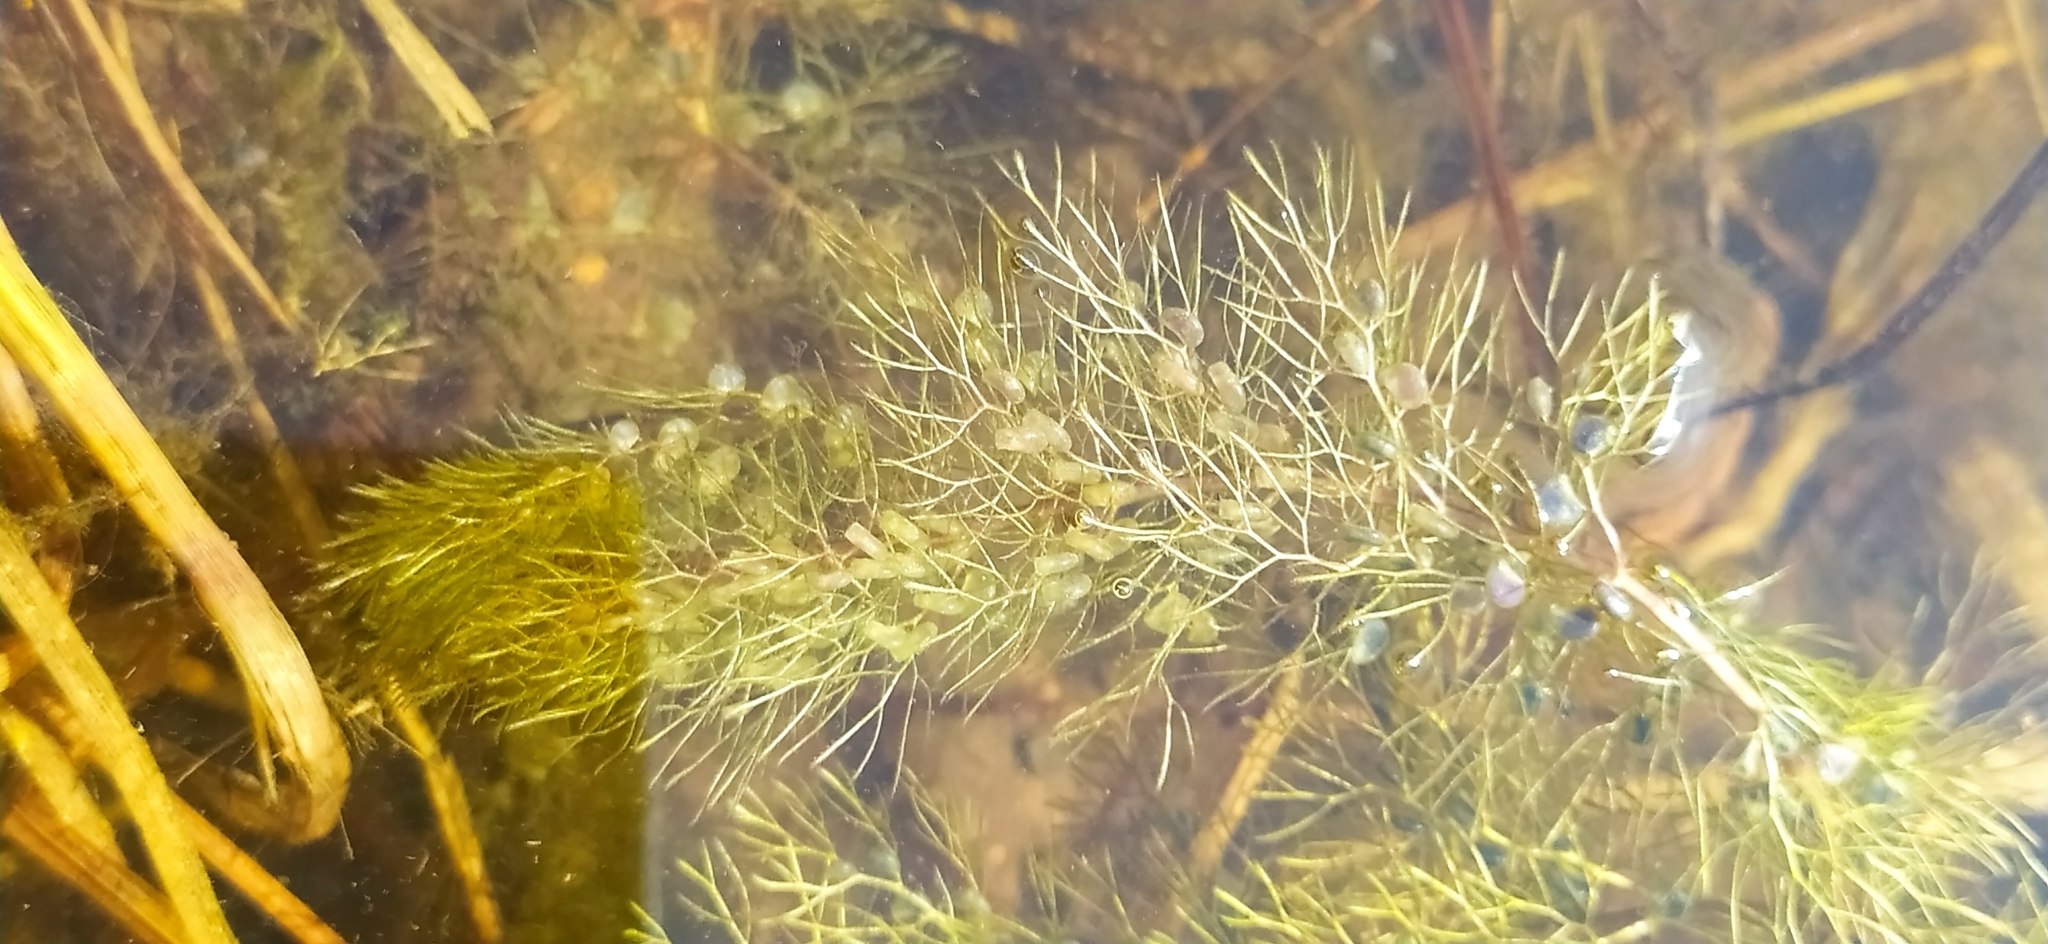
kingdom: Plantae
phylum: Tracheophyta
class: Magnoliopsida
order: Lamiales
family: Lentibulariaceae
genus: Utricularia
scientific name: Utricularia vulgaris
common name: Greater bladderwort
